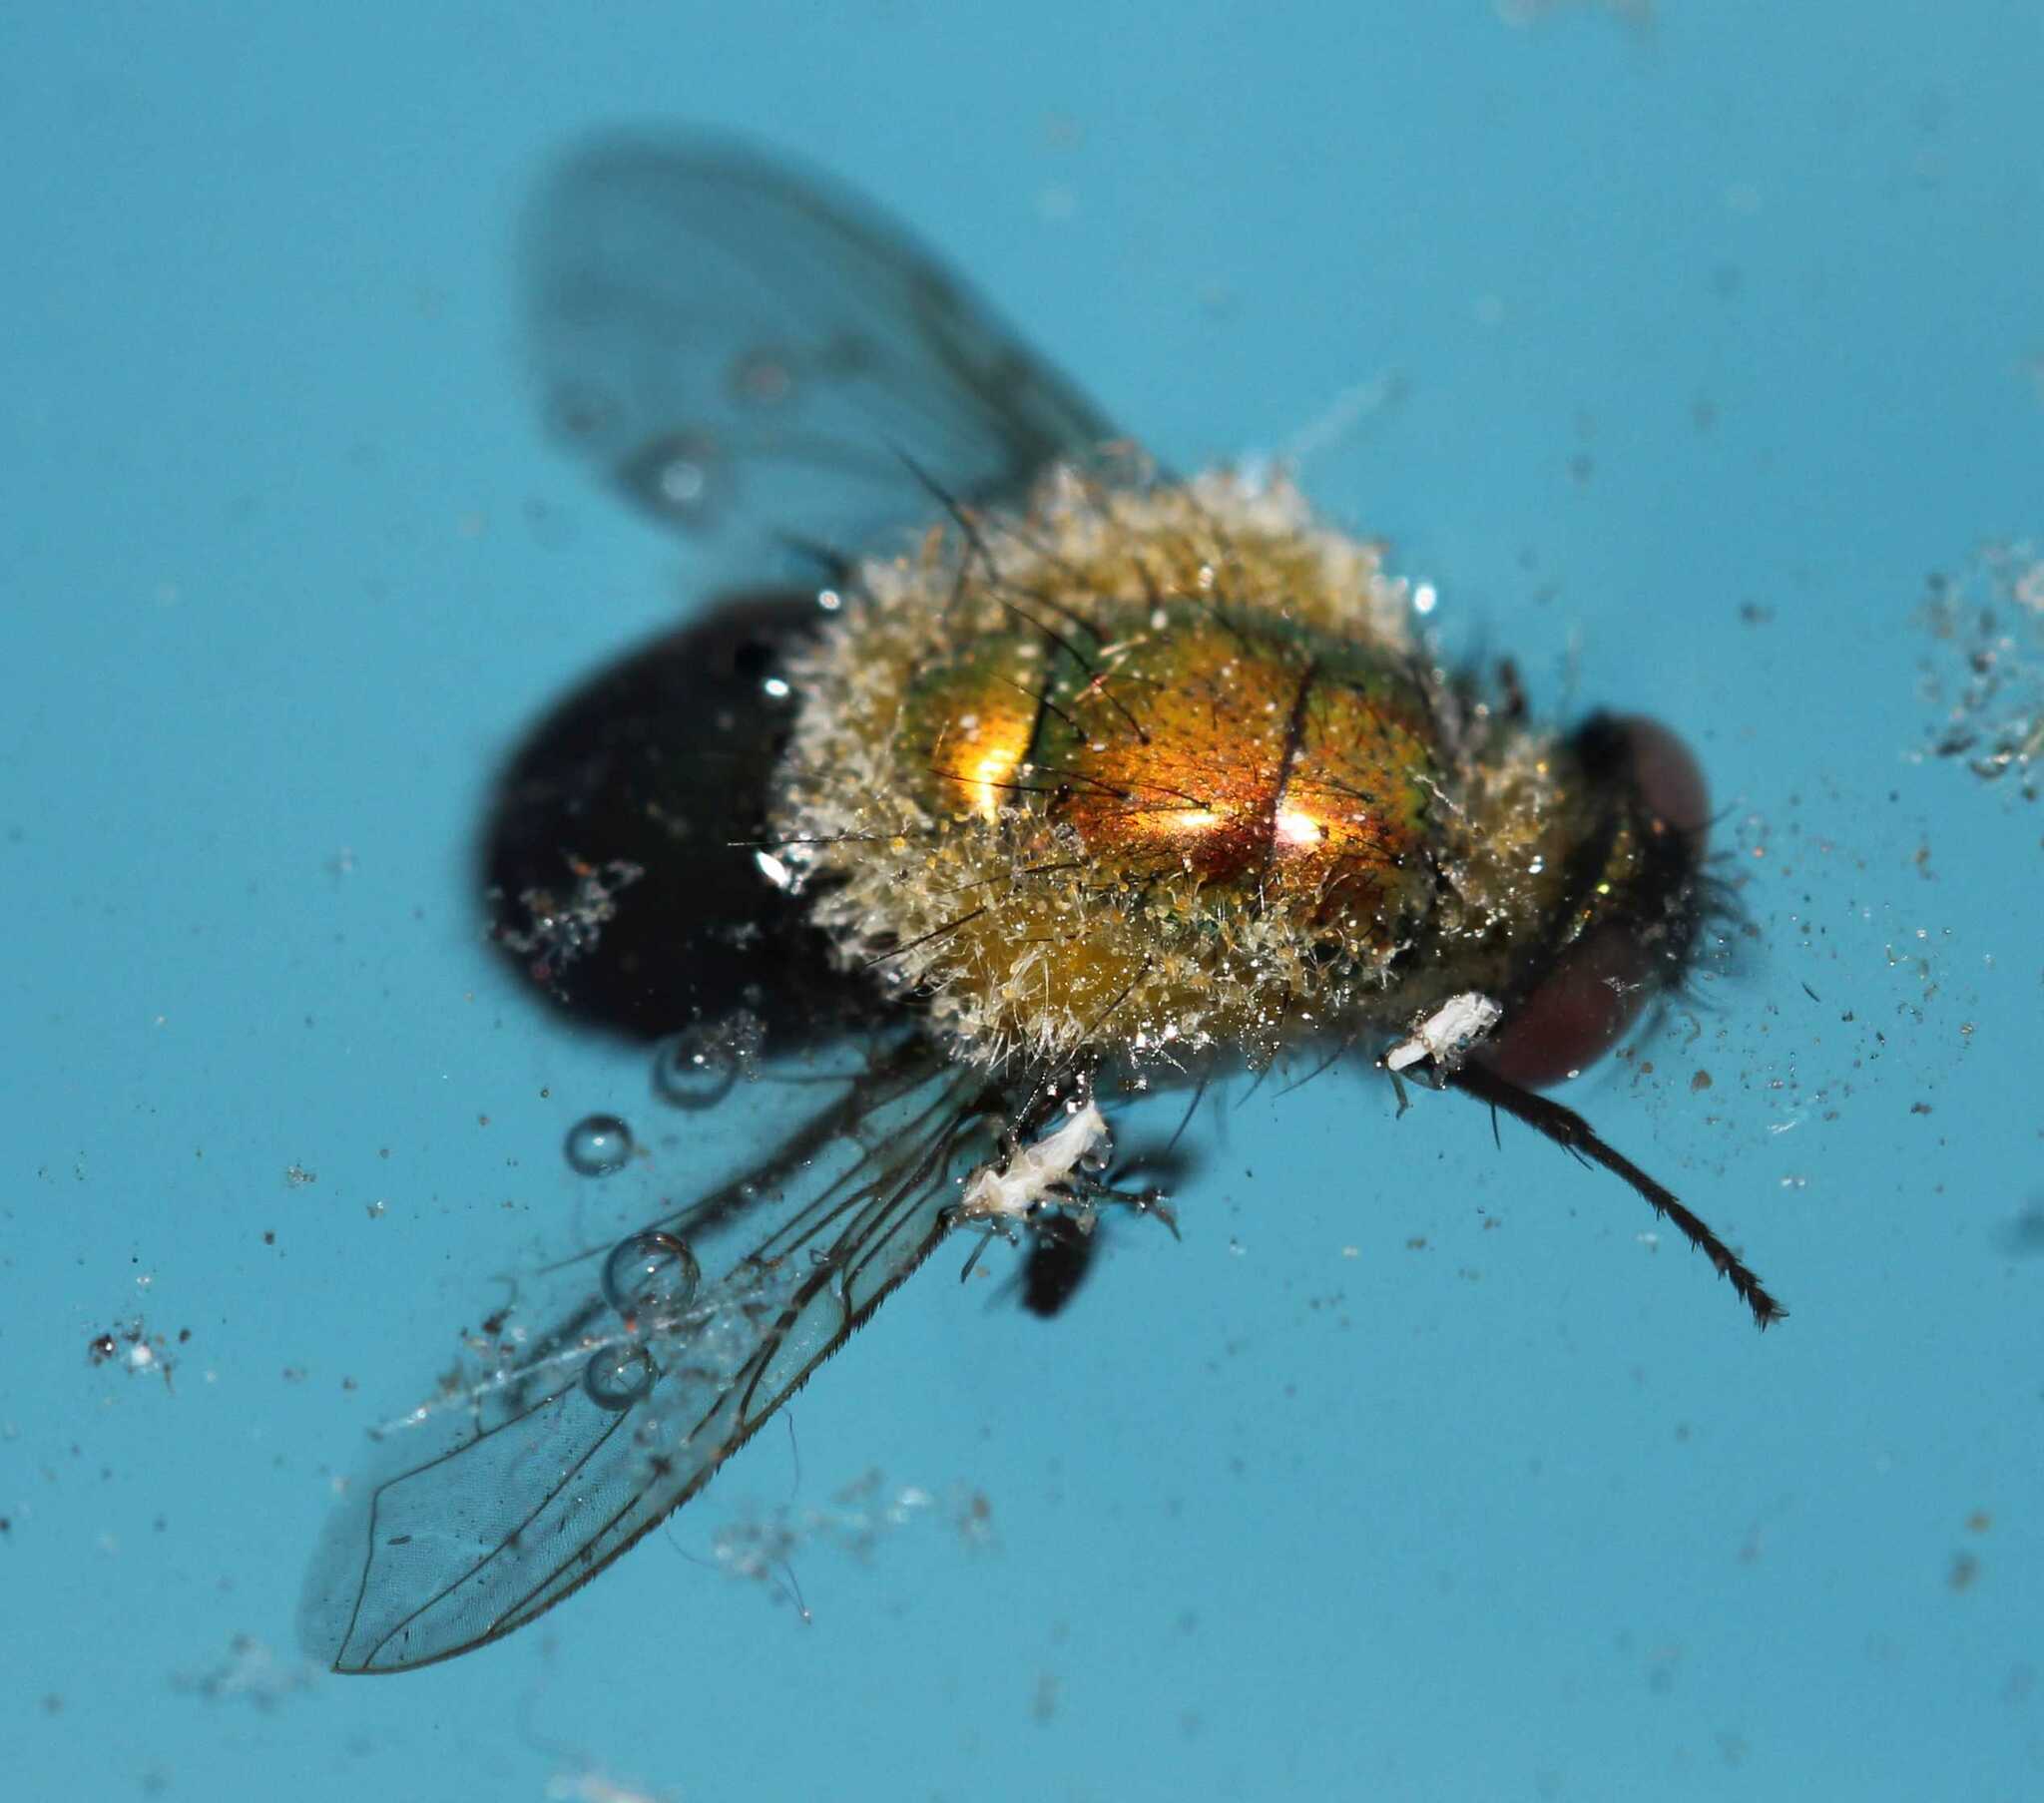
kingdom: Animalia
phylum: Arthropoda
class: Insecta
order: Diptera
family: Calliphoridae
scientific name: Calliphoridae
